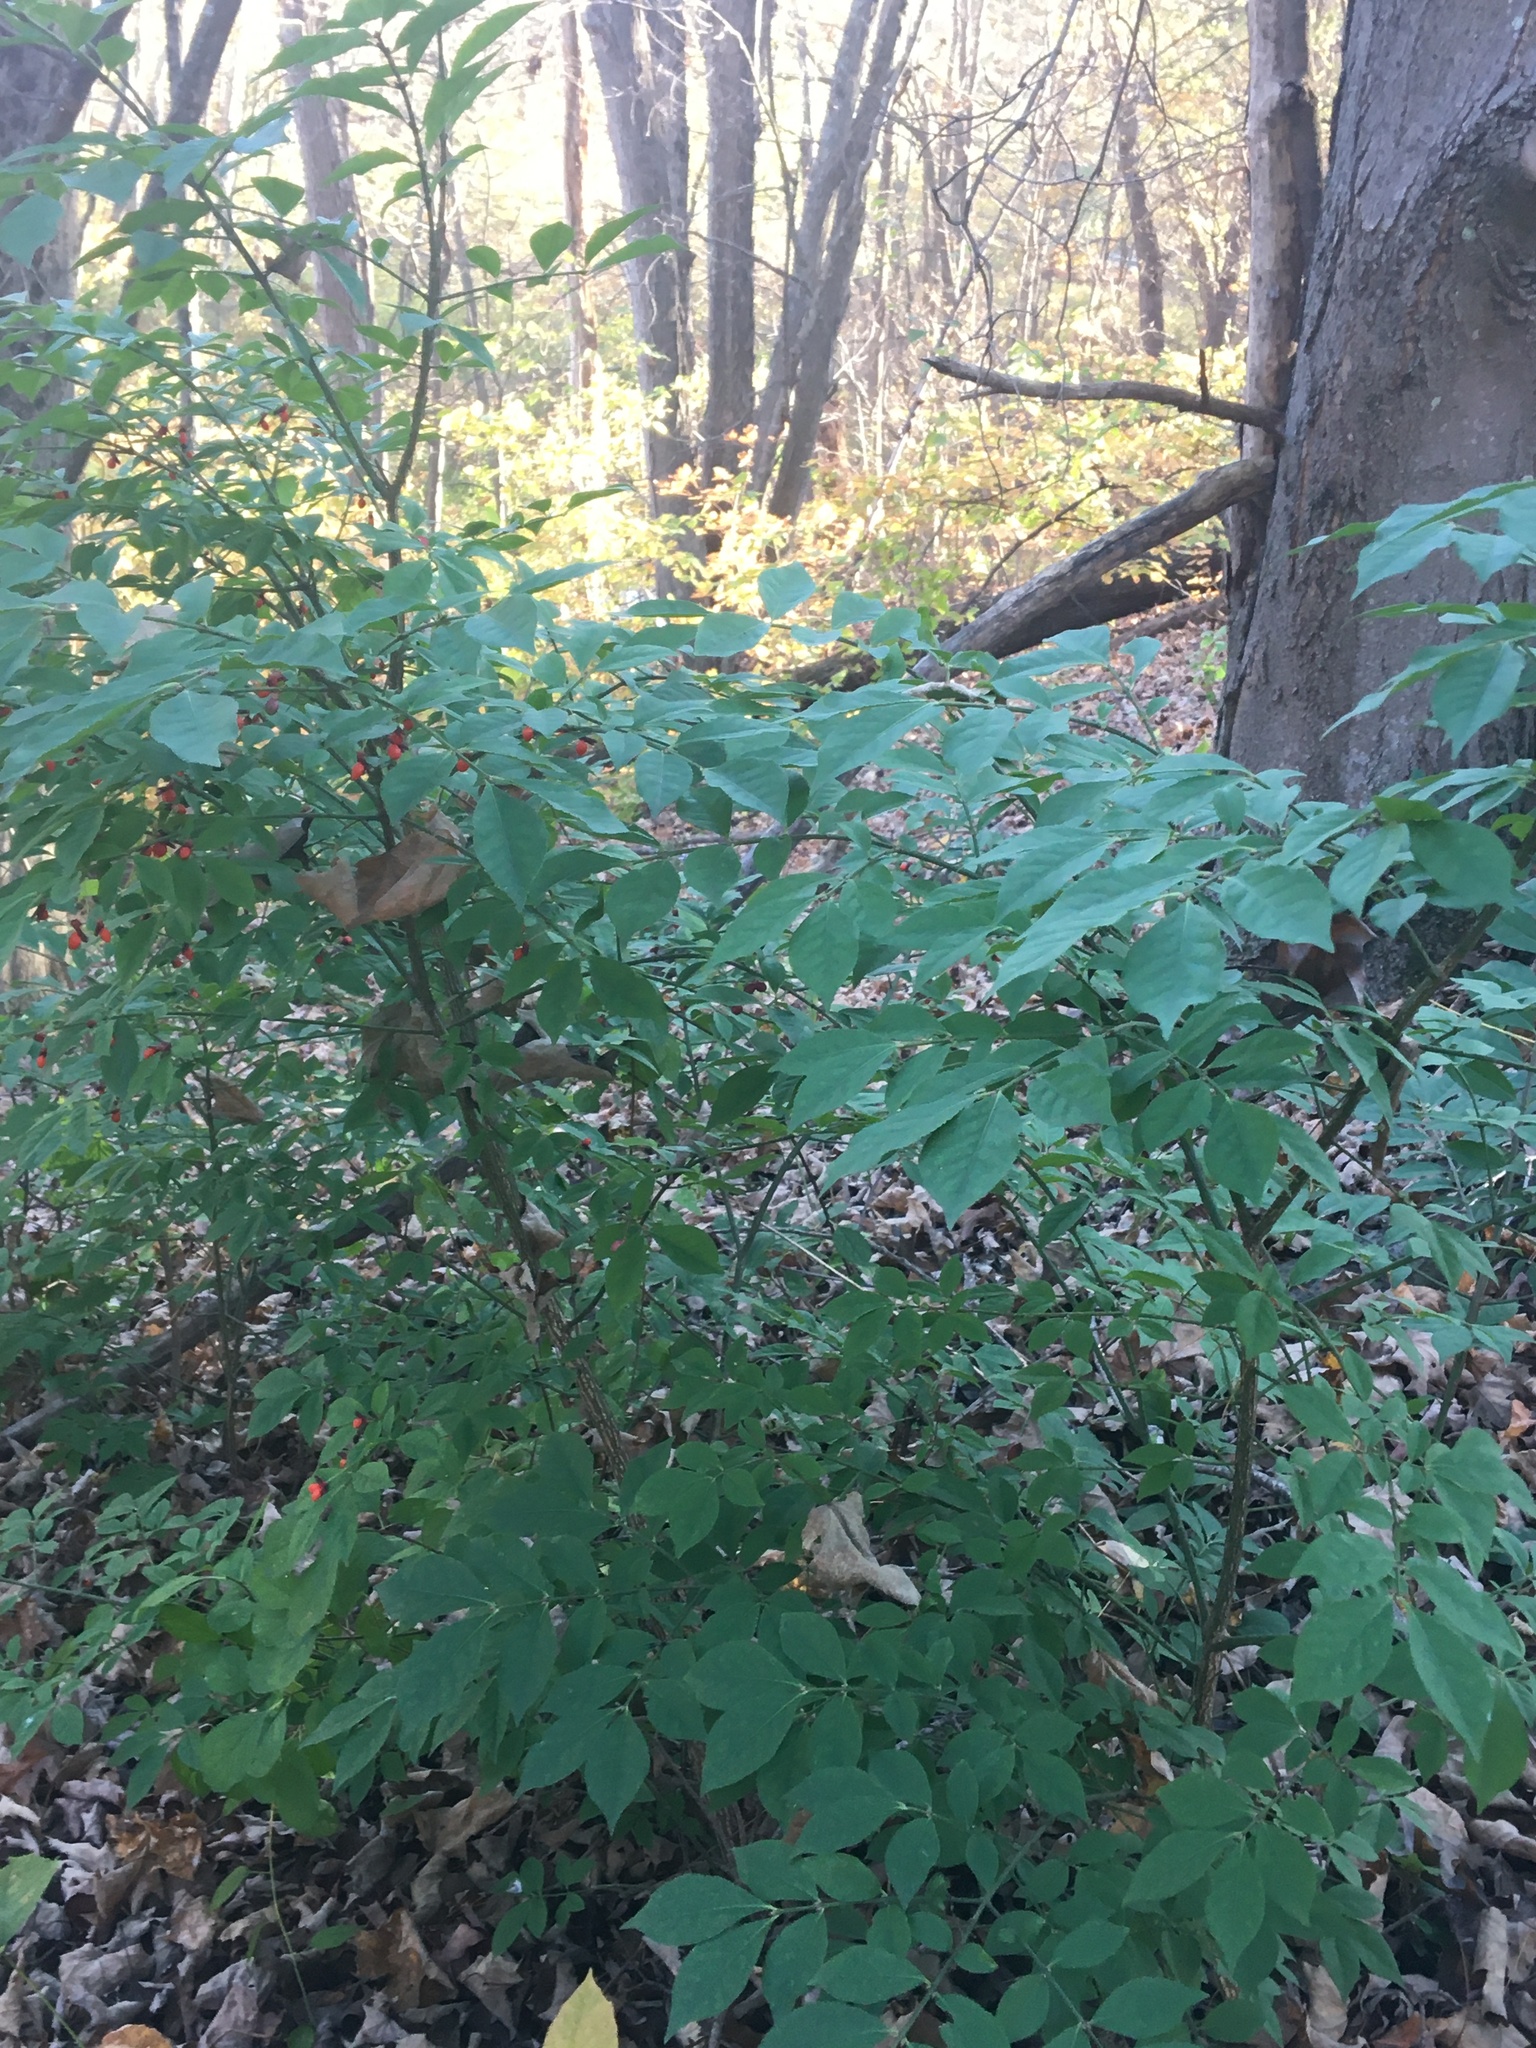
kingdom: Plantae
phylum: Tracheophyta
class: Magnoliopsida
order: Celastrales
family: Celastraceae
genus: Euonymus
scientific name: Euonymus alatus
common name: Winged euonymus
